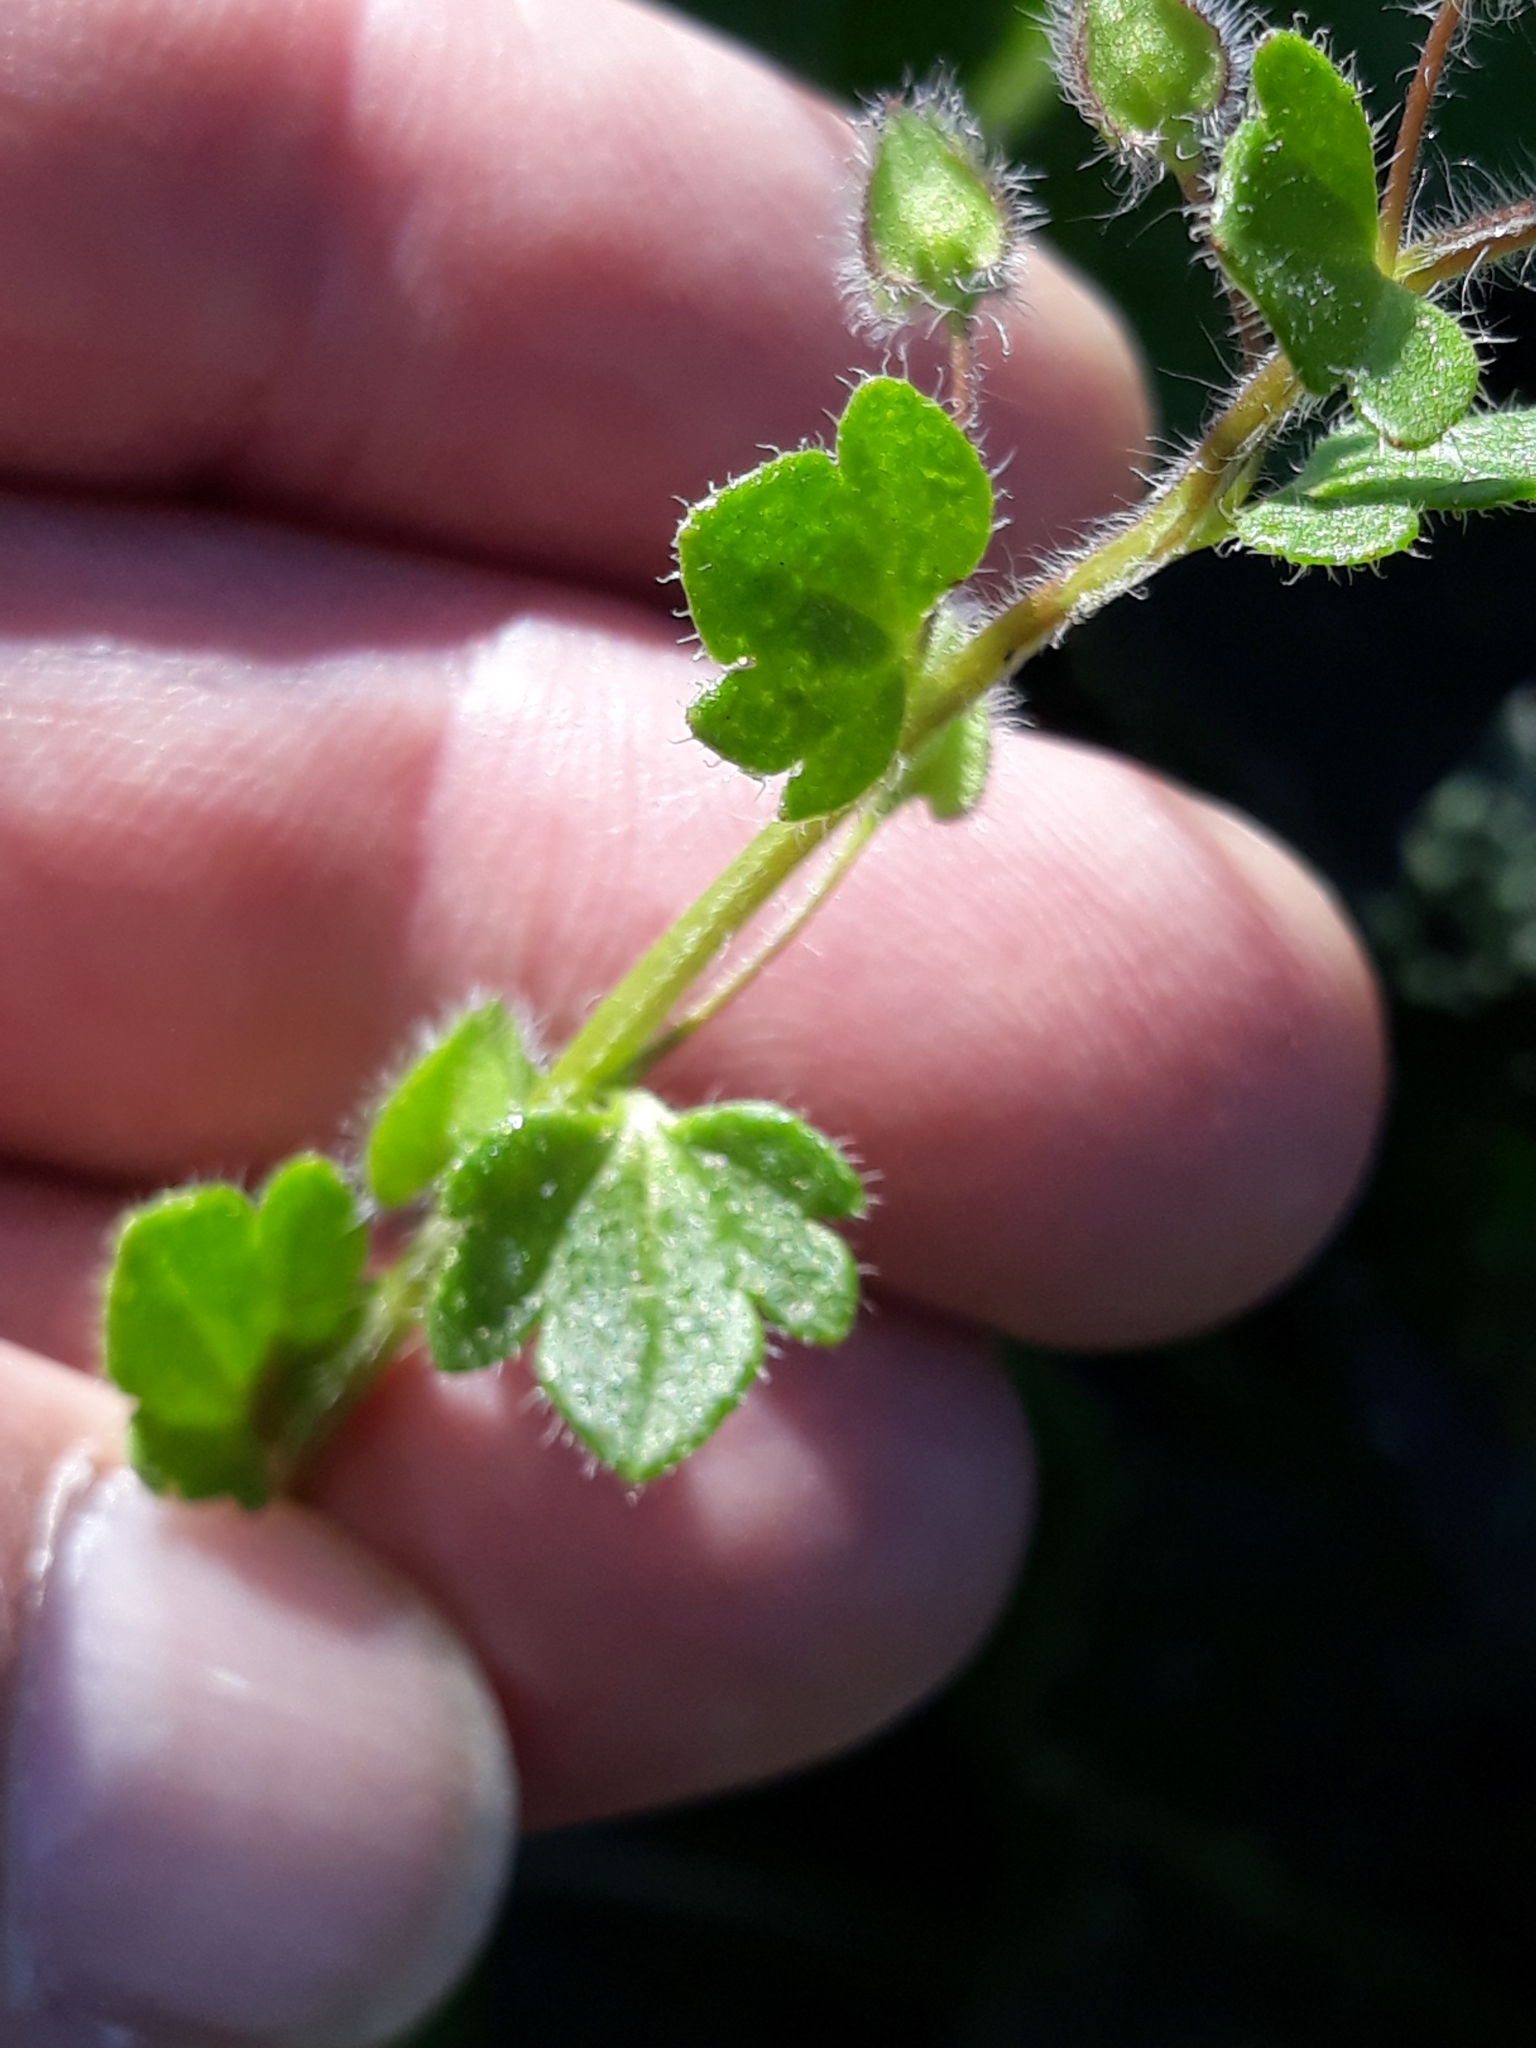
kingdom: Plantae
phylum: Tracheophyta
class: Magnoliopsida
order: Lamiales
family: Plantaginaceae
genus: Veronica
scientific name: Veronica hederifolia
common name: Ivy-leaved speedwell
